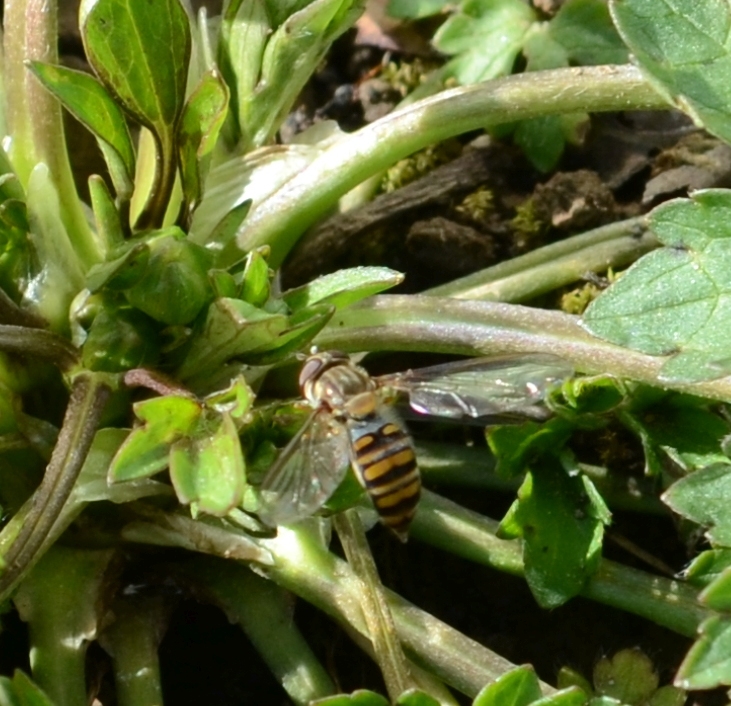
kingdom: Animalia
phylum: Arthropoda
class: Insecta
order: Diptera
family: Syrphidae
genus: Episyrphus
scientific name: Episyrphus balteatus
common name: Marmalade hoverfly
